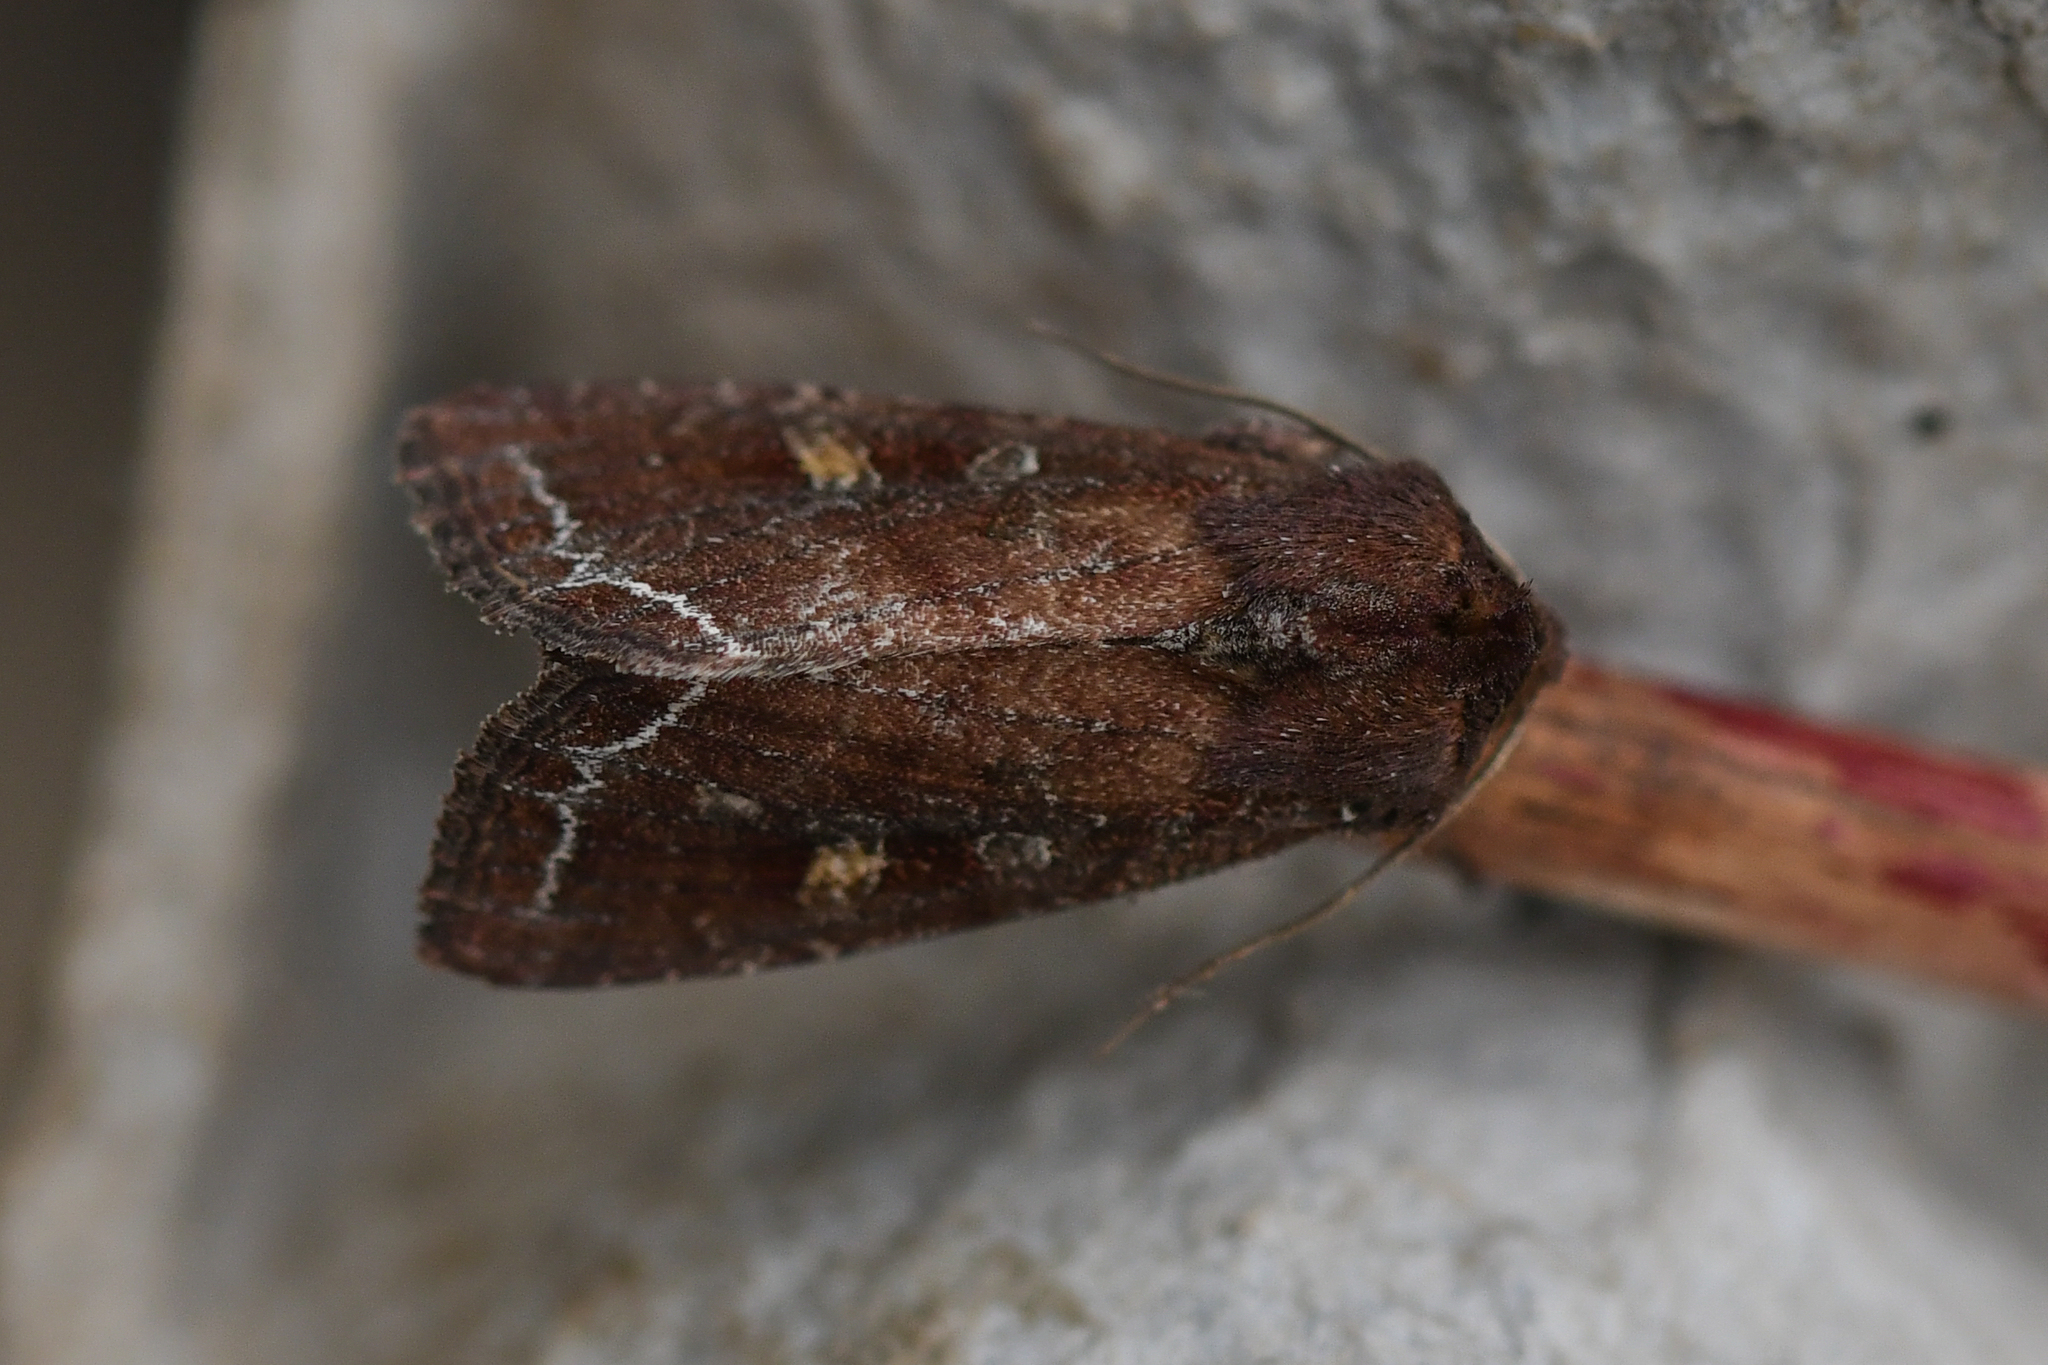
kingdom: Animalia
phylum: Arthropoda
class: Insecta
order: Lepidoptera
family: Noctuidae
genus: Lacanobia
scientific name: Lacanobia oleracea
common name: Bright-line brown-eye
